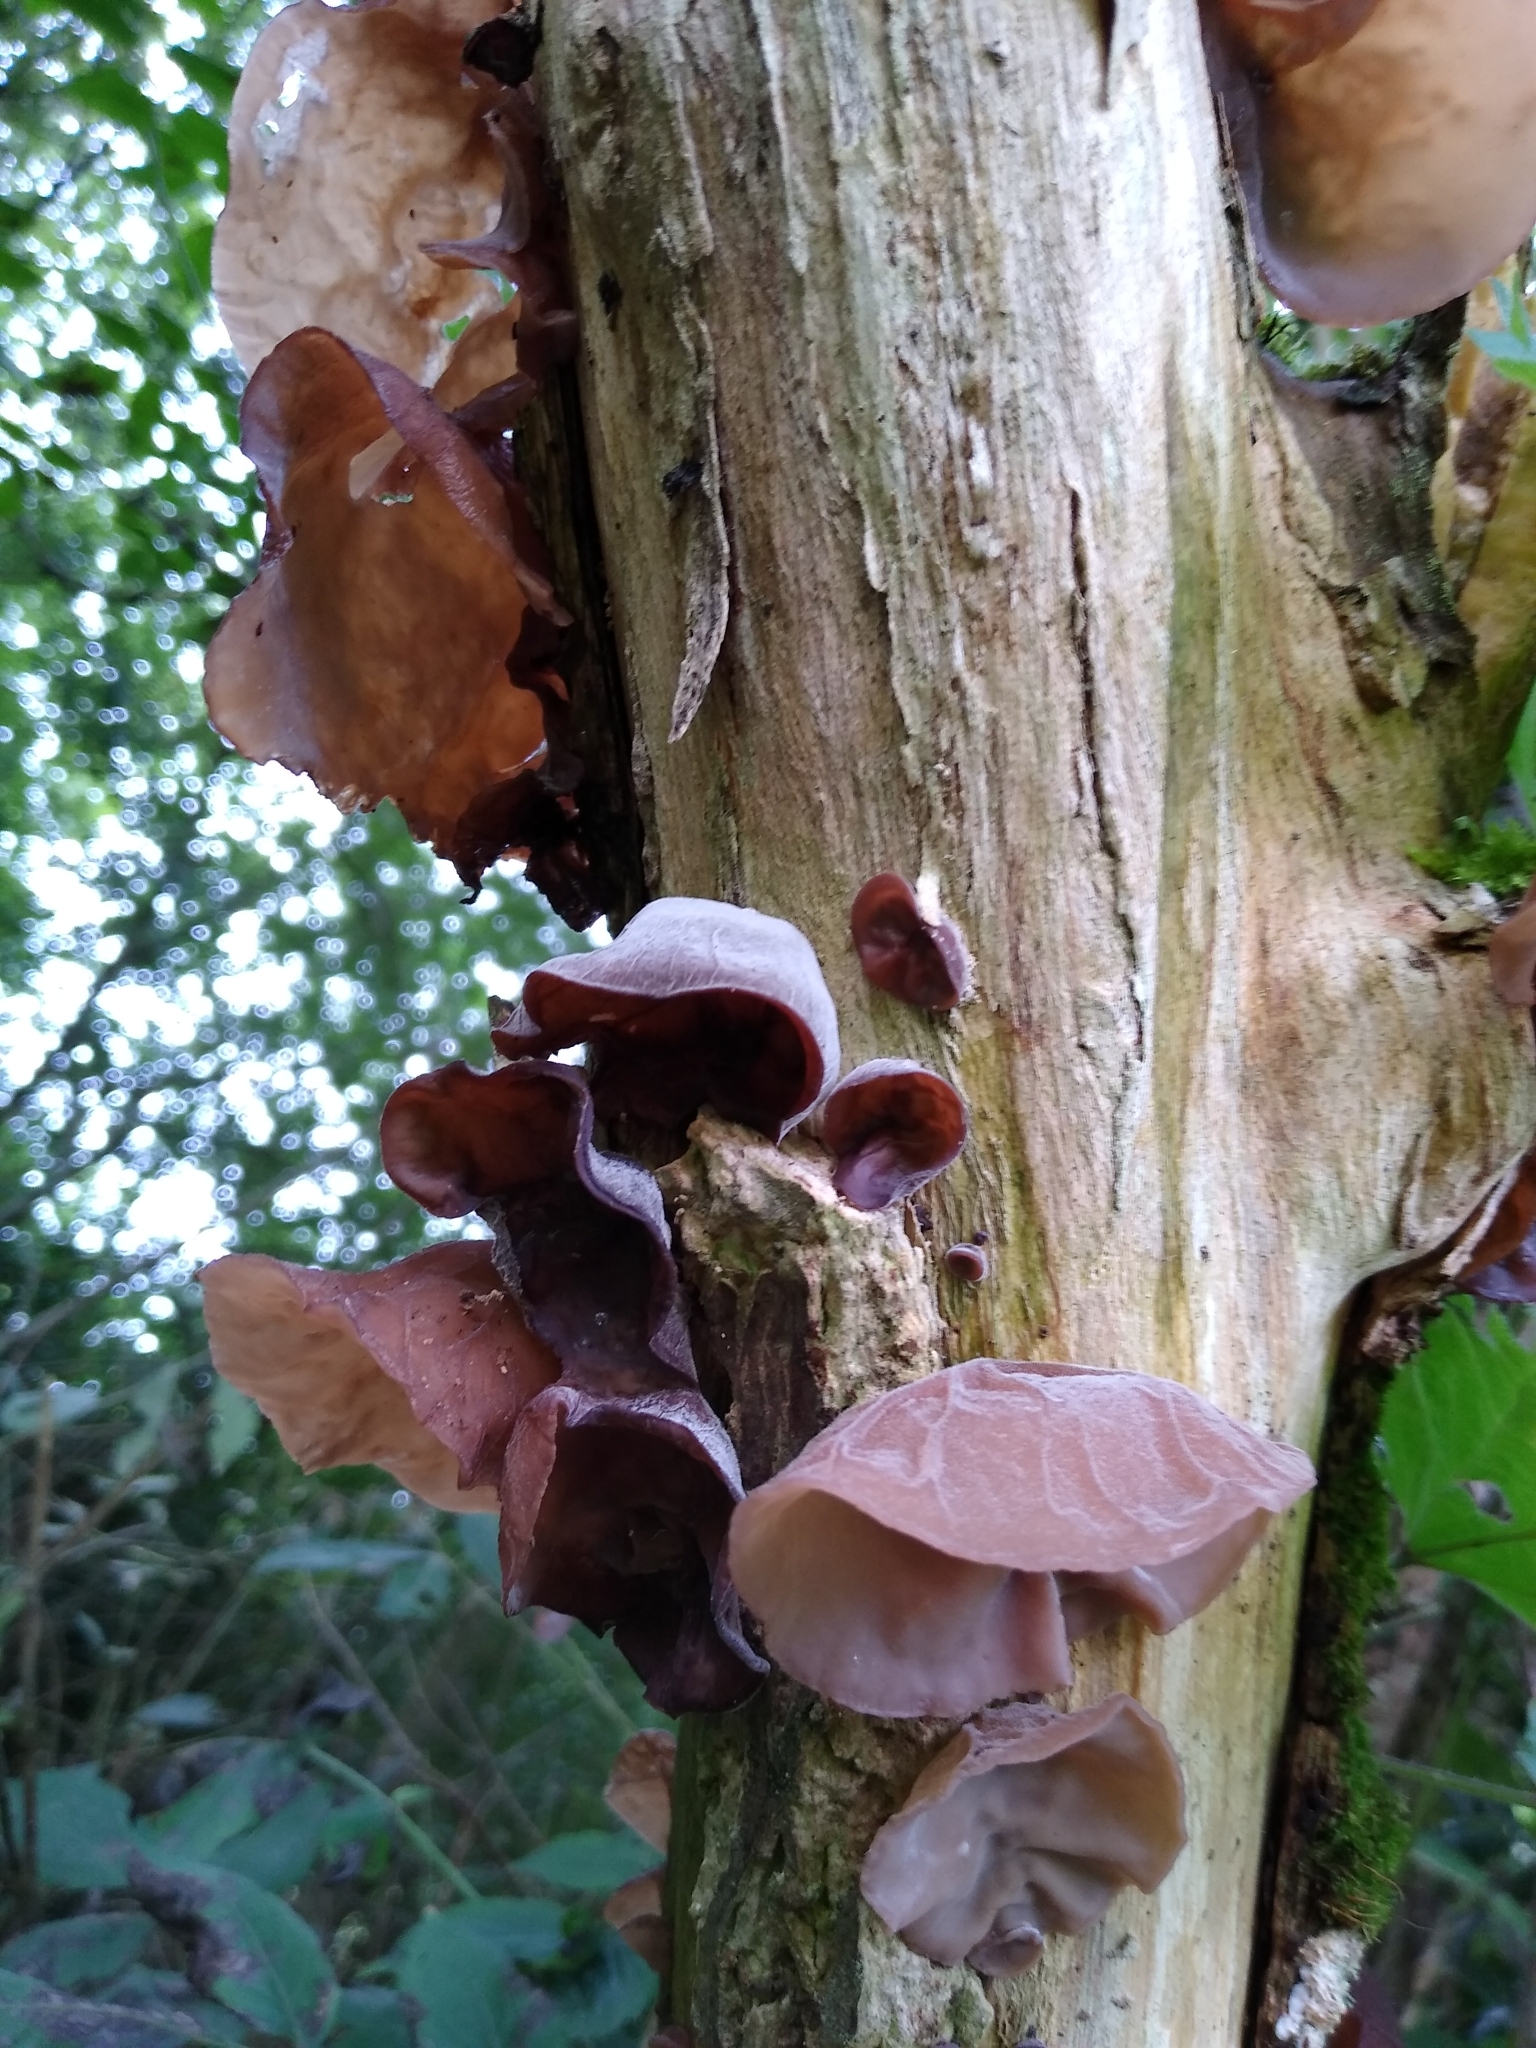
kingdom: Fungi
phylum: Basidiomycota
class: Agaricomycetes
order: Auriculariales
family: Auriculariaceae
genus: Auricularia
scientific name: Auricularia auricula-judae
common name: Jelly ear
